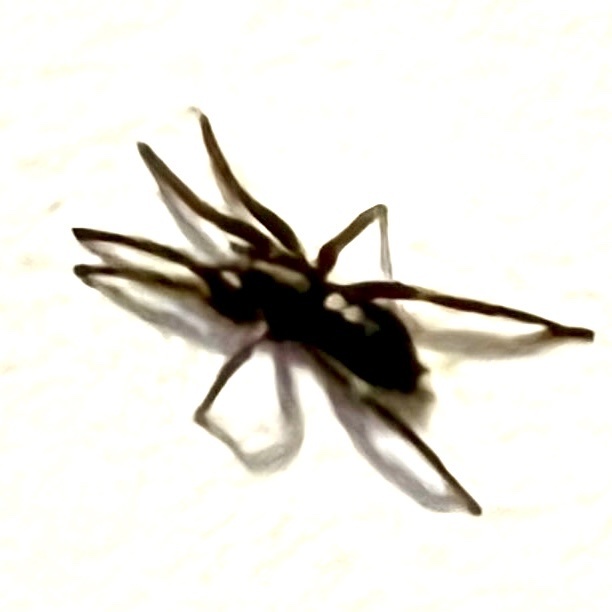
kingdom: Animalia
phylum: Arthropoda
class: Arachnida
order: Araneae
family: Gnaphosidae
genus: Herpyllus
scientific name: Herpyllus ecclesiasticus
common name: Eastern parson spider
